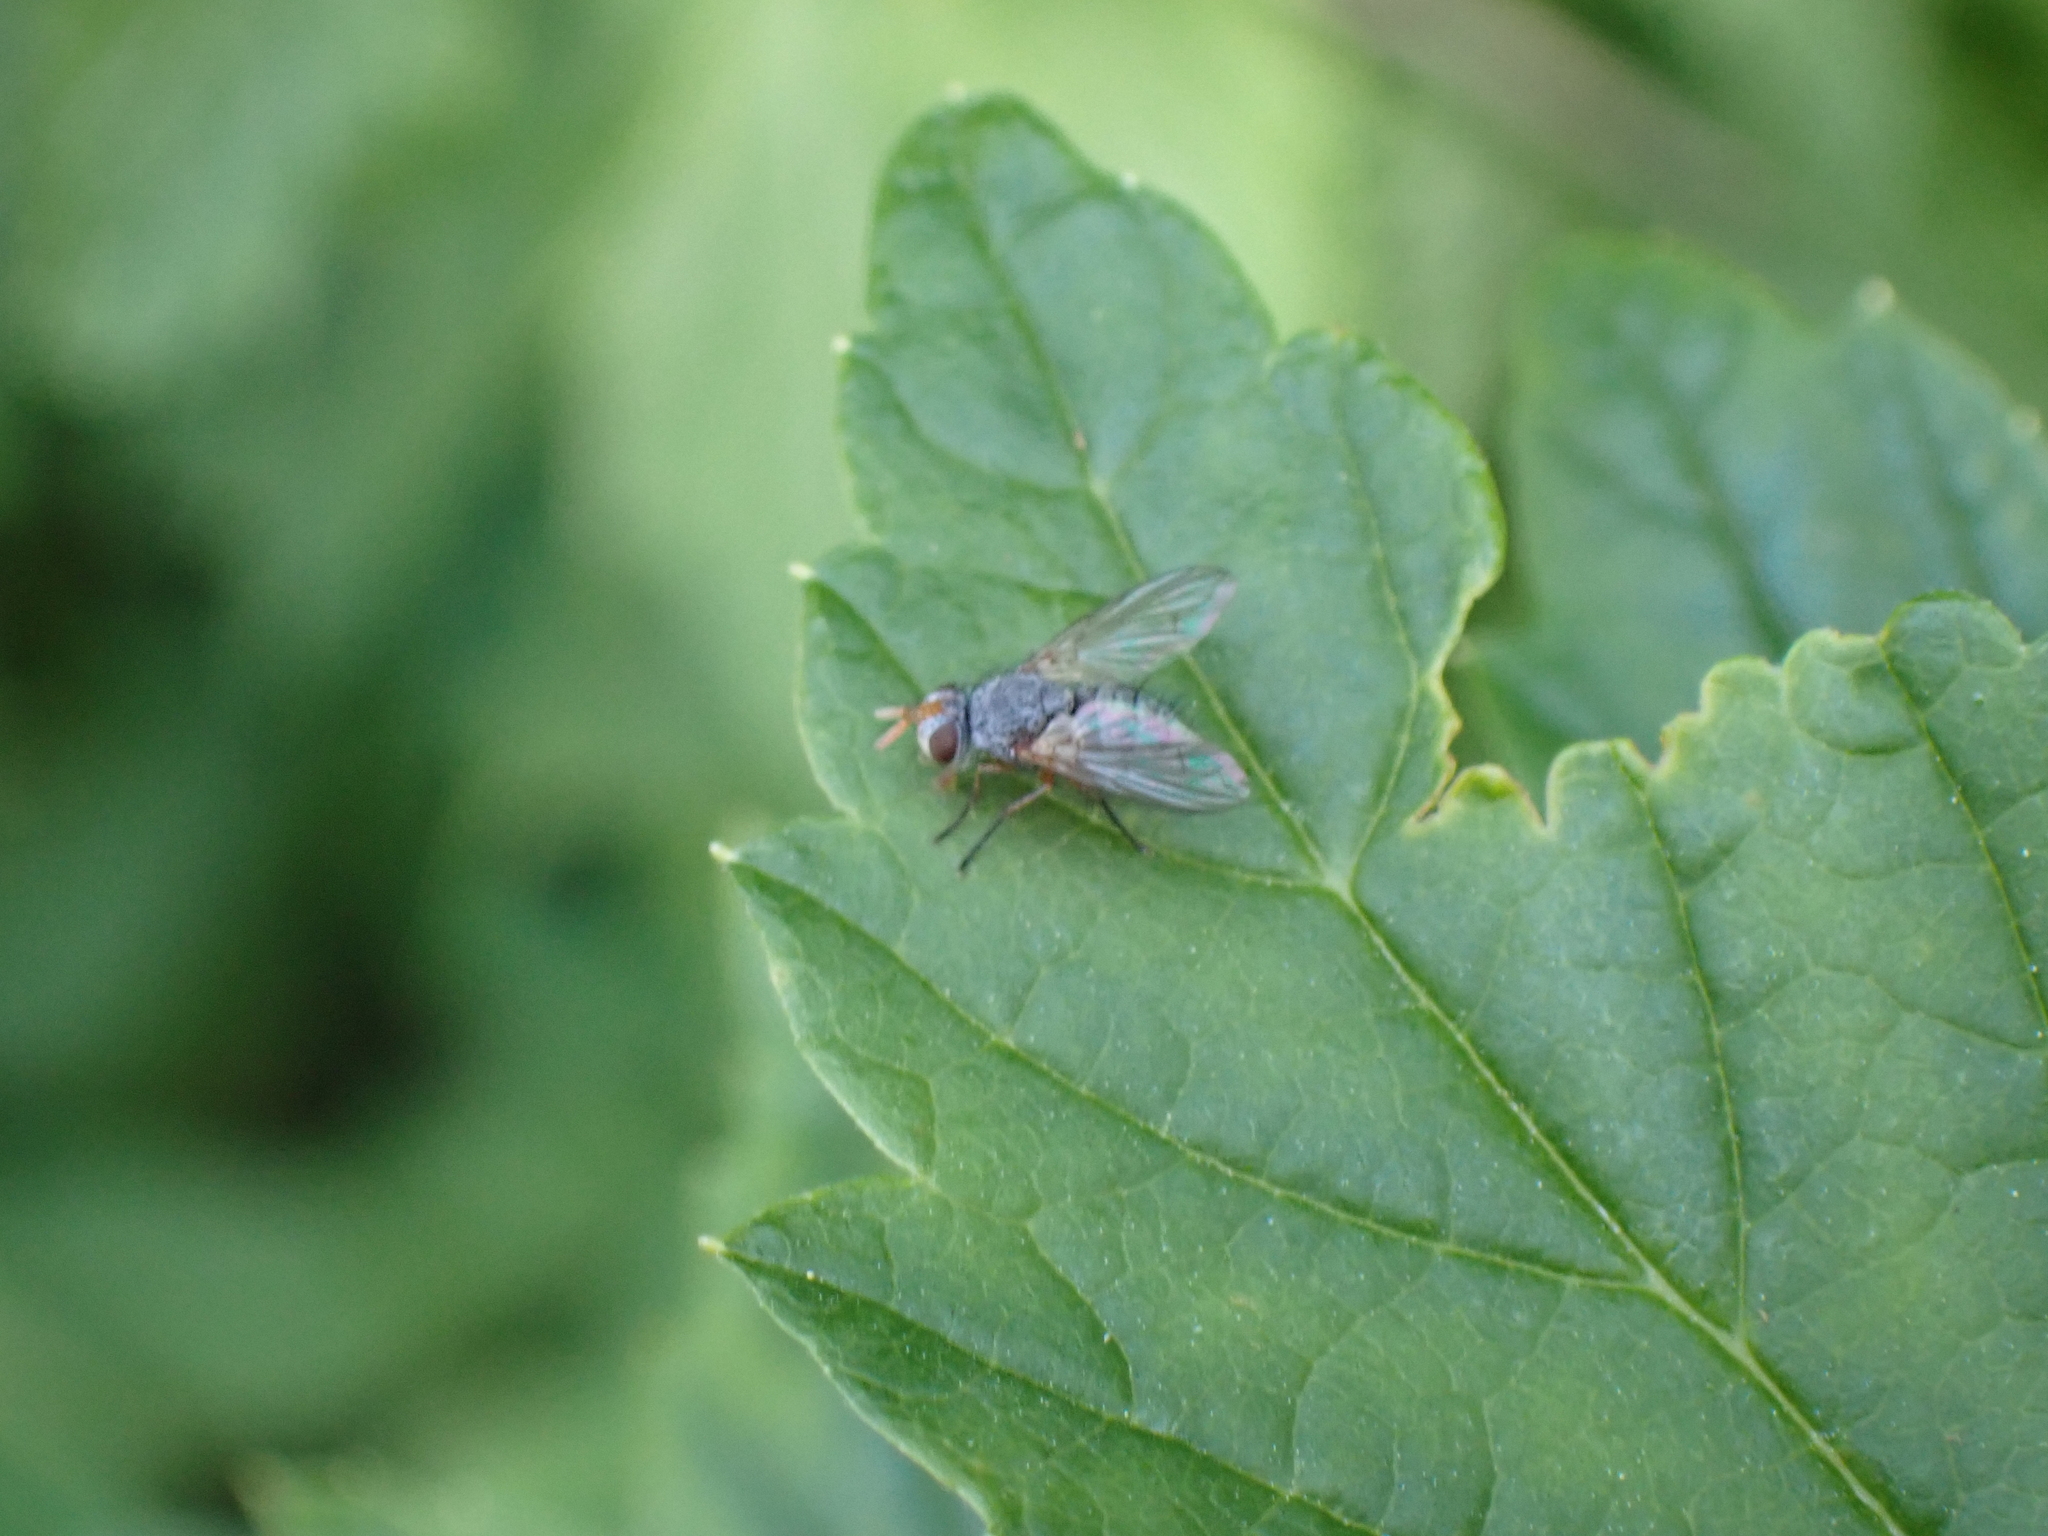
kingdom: Animalia
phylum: Arthropoda
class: Insecta
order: Diptera
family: Tachinidae
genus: Hebia
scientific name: Hebia flavipes
